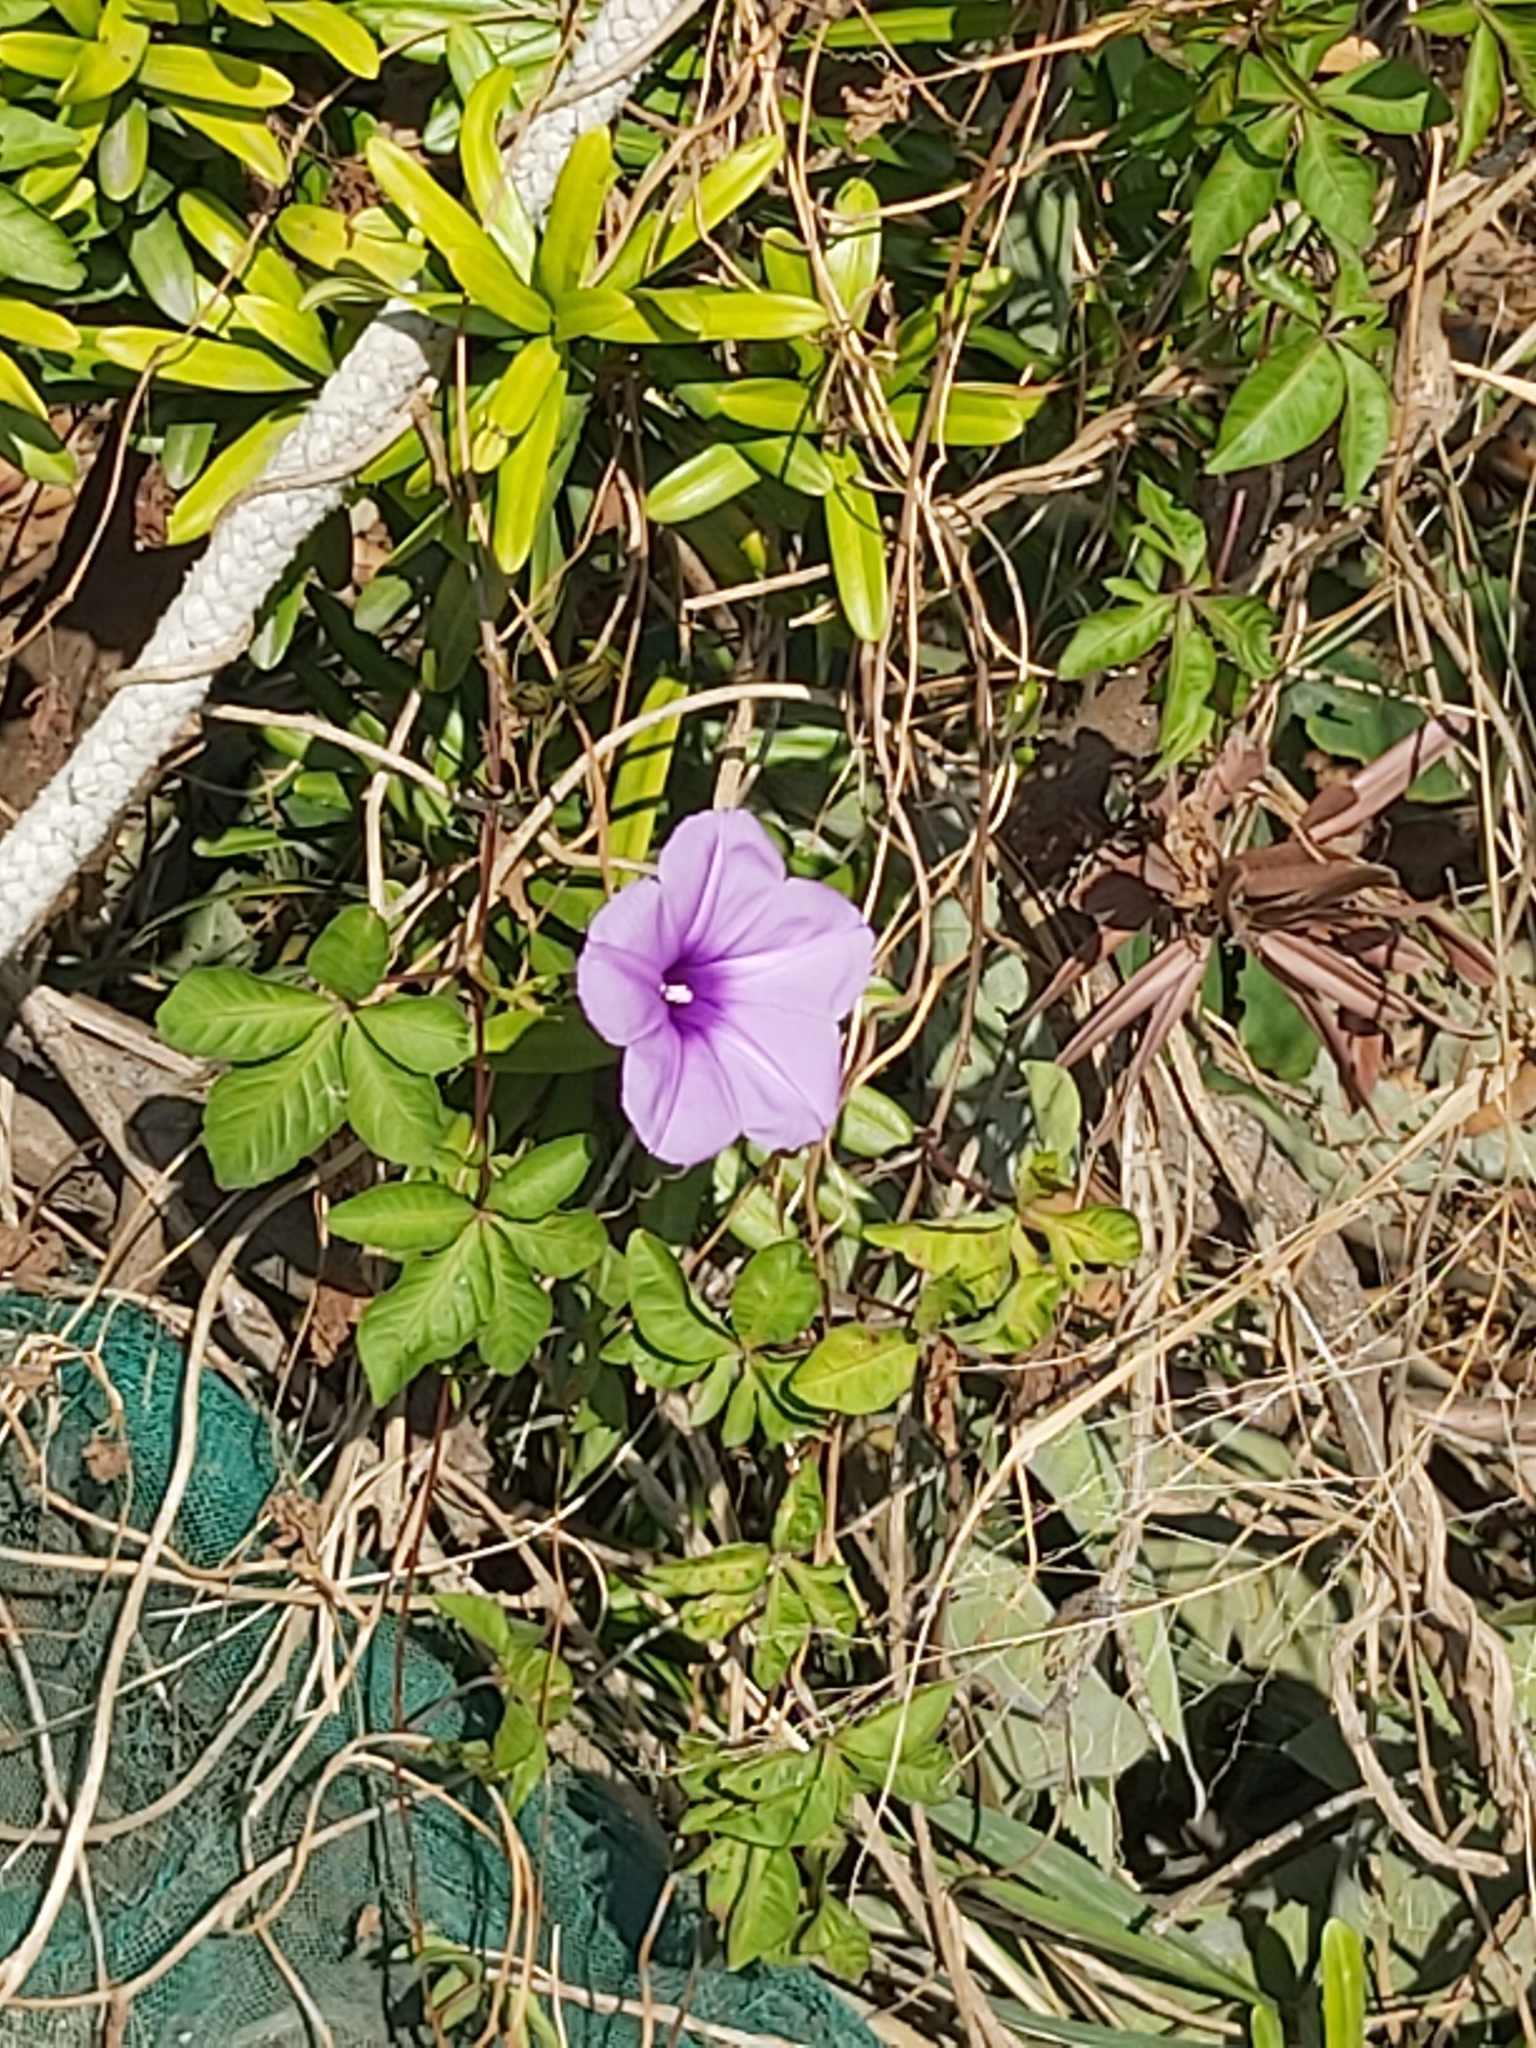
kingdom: Plantae
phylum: Tracheophyta
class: Magnoliopsida
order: Solanales
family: Convolvulaceae
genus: Ipomoea
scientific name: Ipomoea cairica
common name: Mile a minute vine
